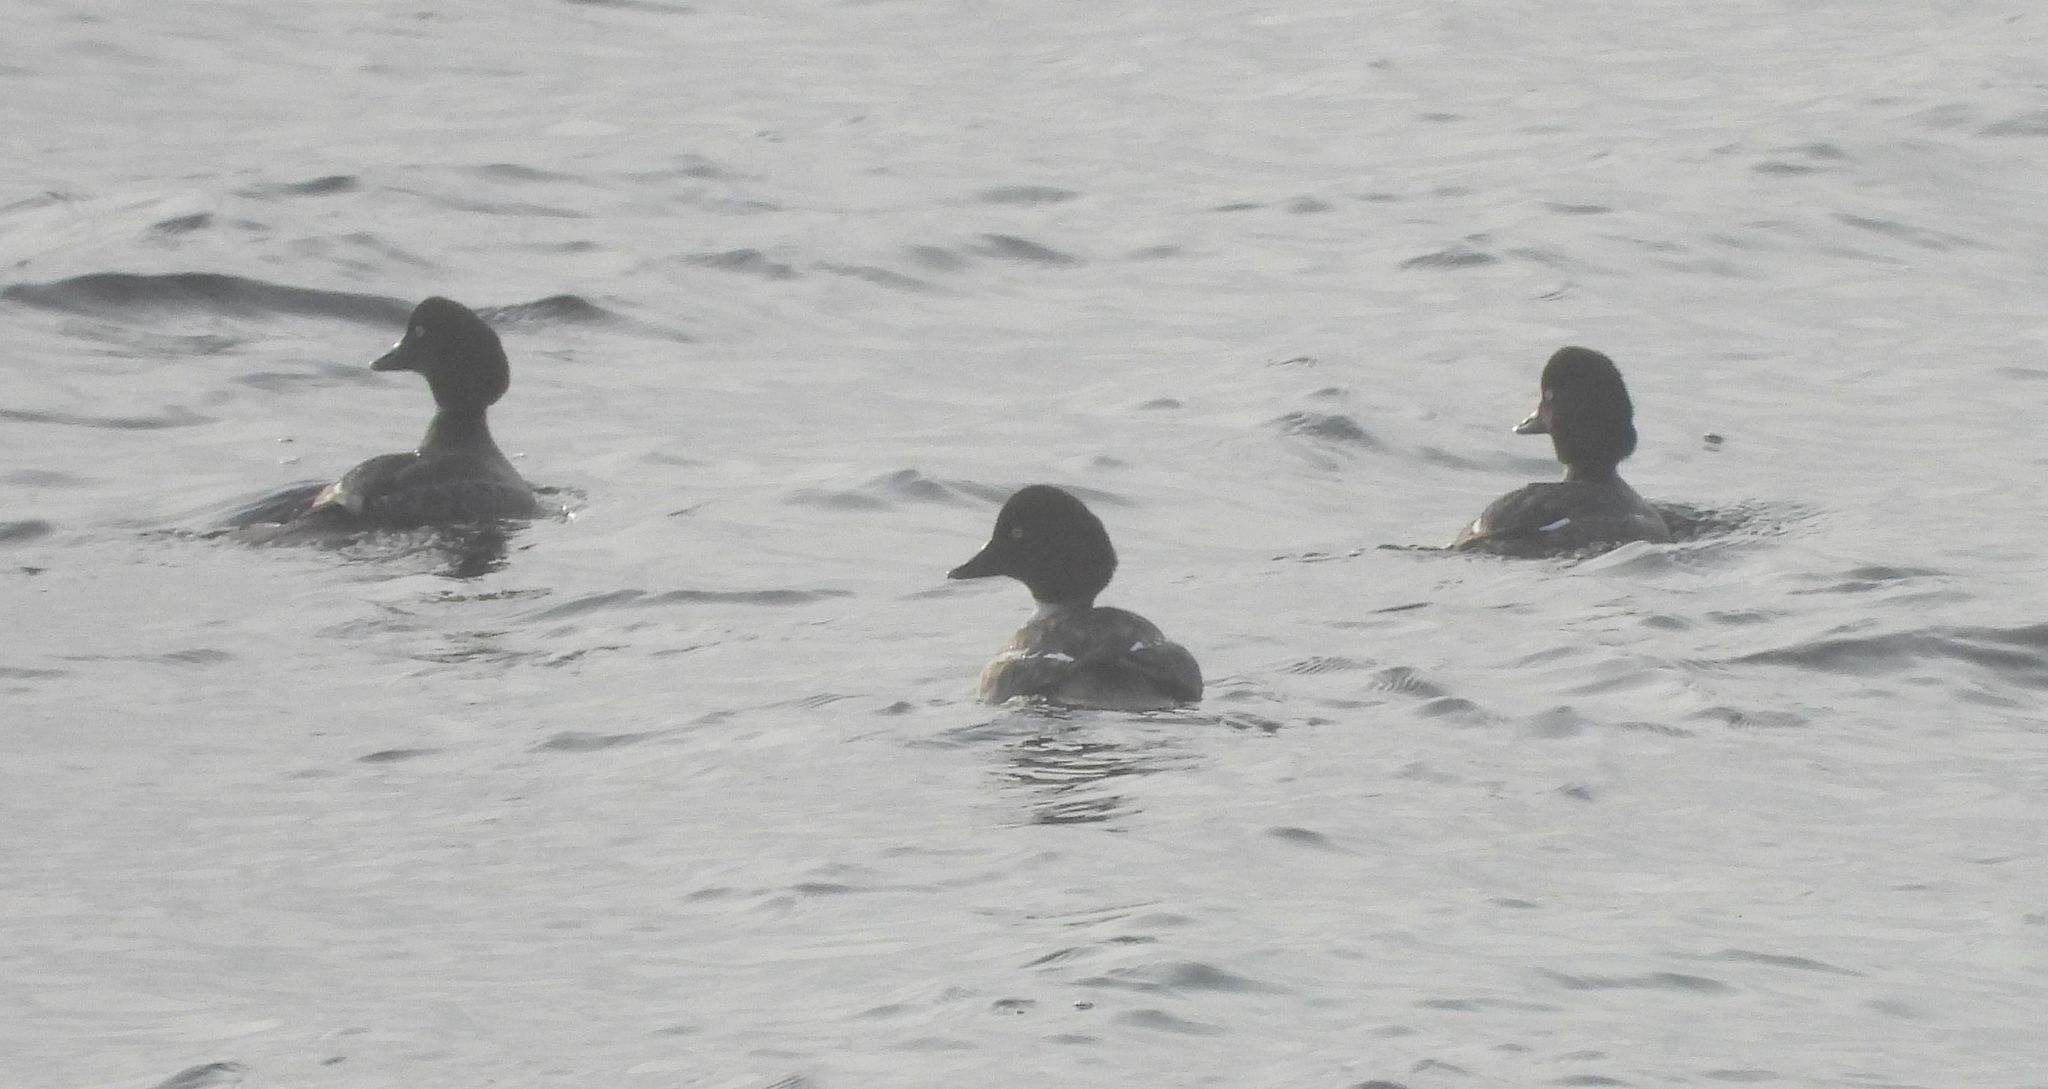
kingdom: Animalia
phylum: Chordata
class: Aves
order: Anseriformes
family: Anatidae
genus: Bucephala
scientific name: Bucephala clangula
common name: Common goldeneye
